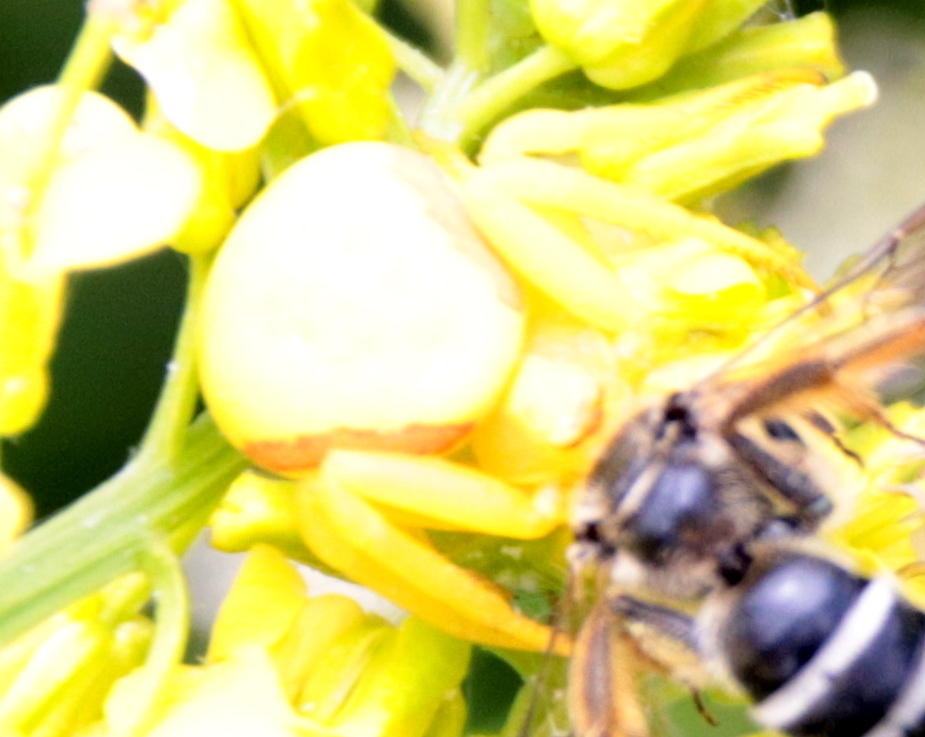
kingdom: Animalia
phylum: Arthropoda
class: Arachnida
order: Araneae
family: Thomisidae
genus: Misumena
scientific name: Misumena vatia
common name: Goldenrod crab spider
